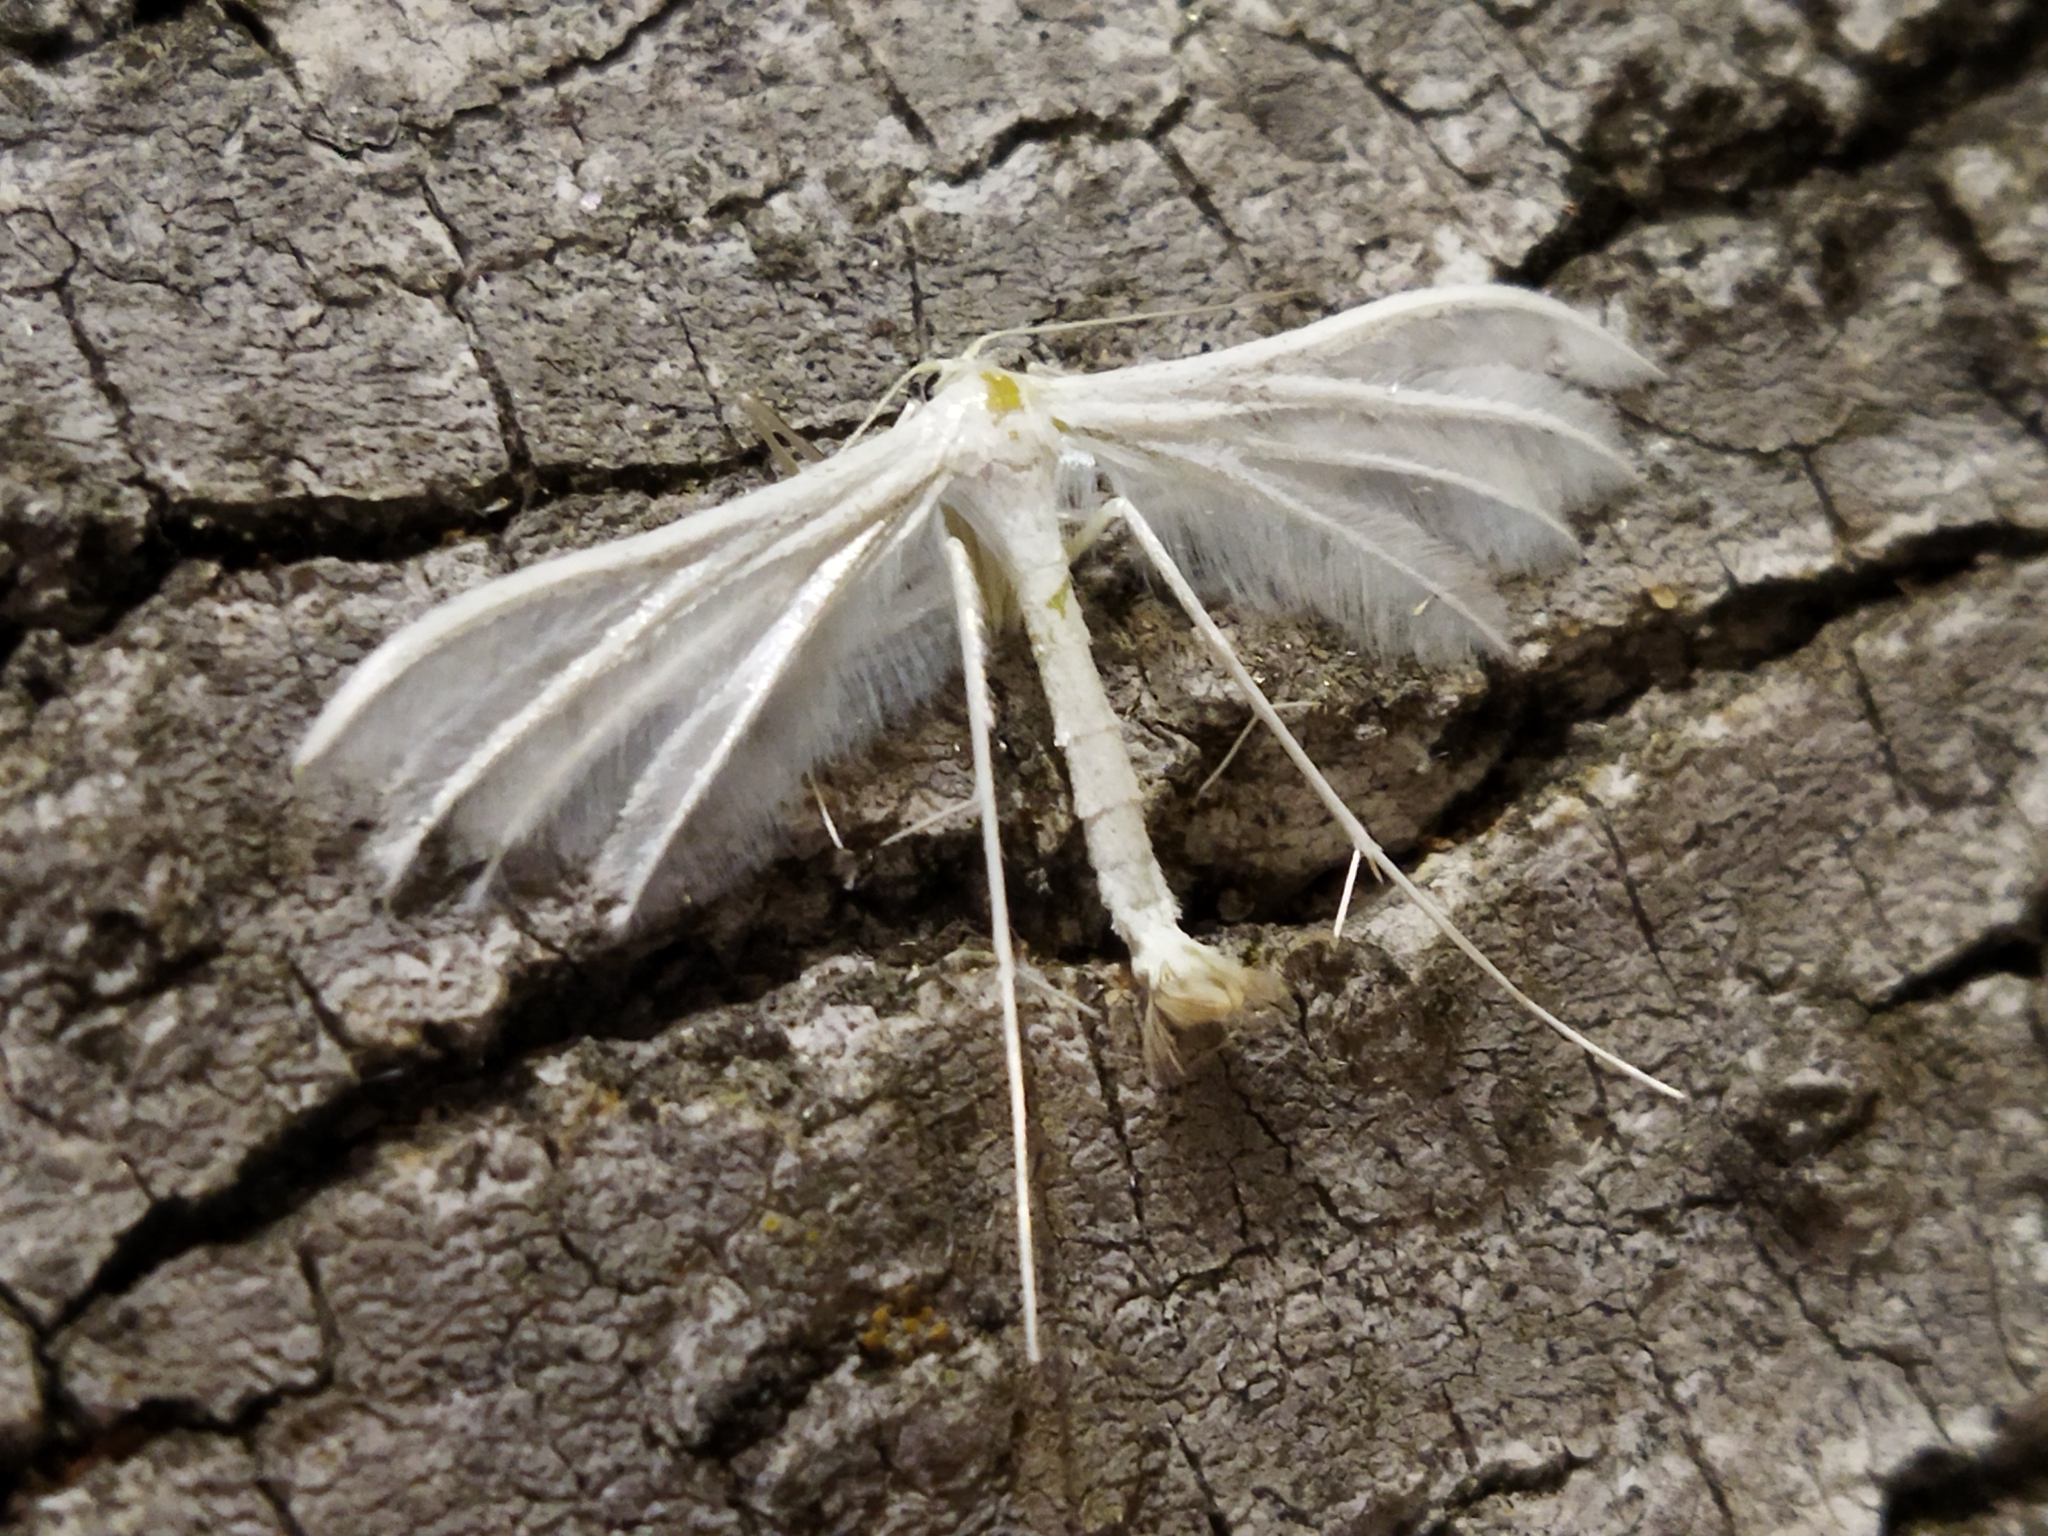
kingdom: Animalia
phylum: Arthropoda
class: Insecta
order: Lepidoptera
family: Pterophoridae
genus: Pterophorus
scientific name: Pterophorus pentadactyla
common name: White plume moth
